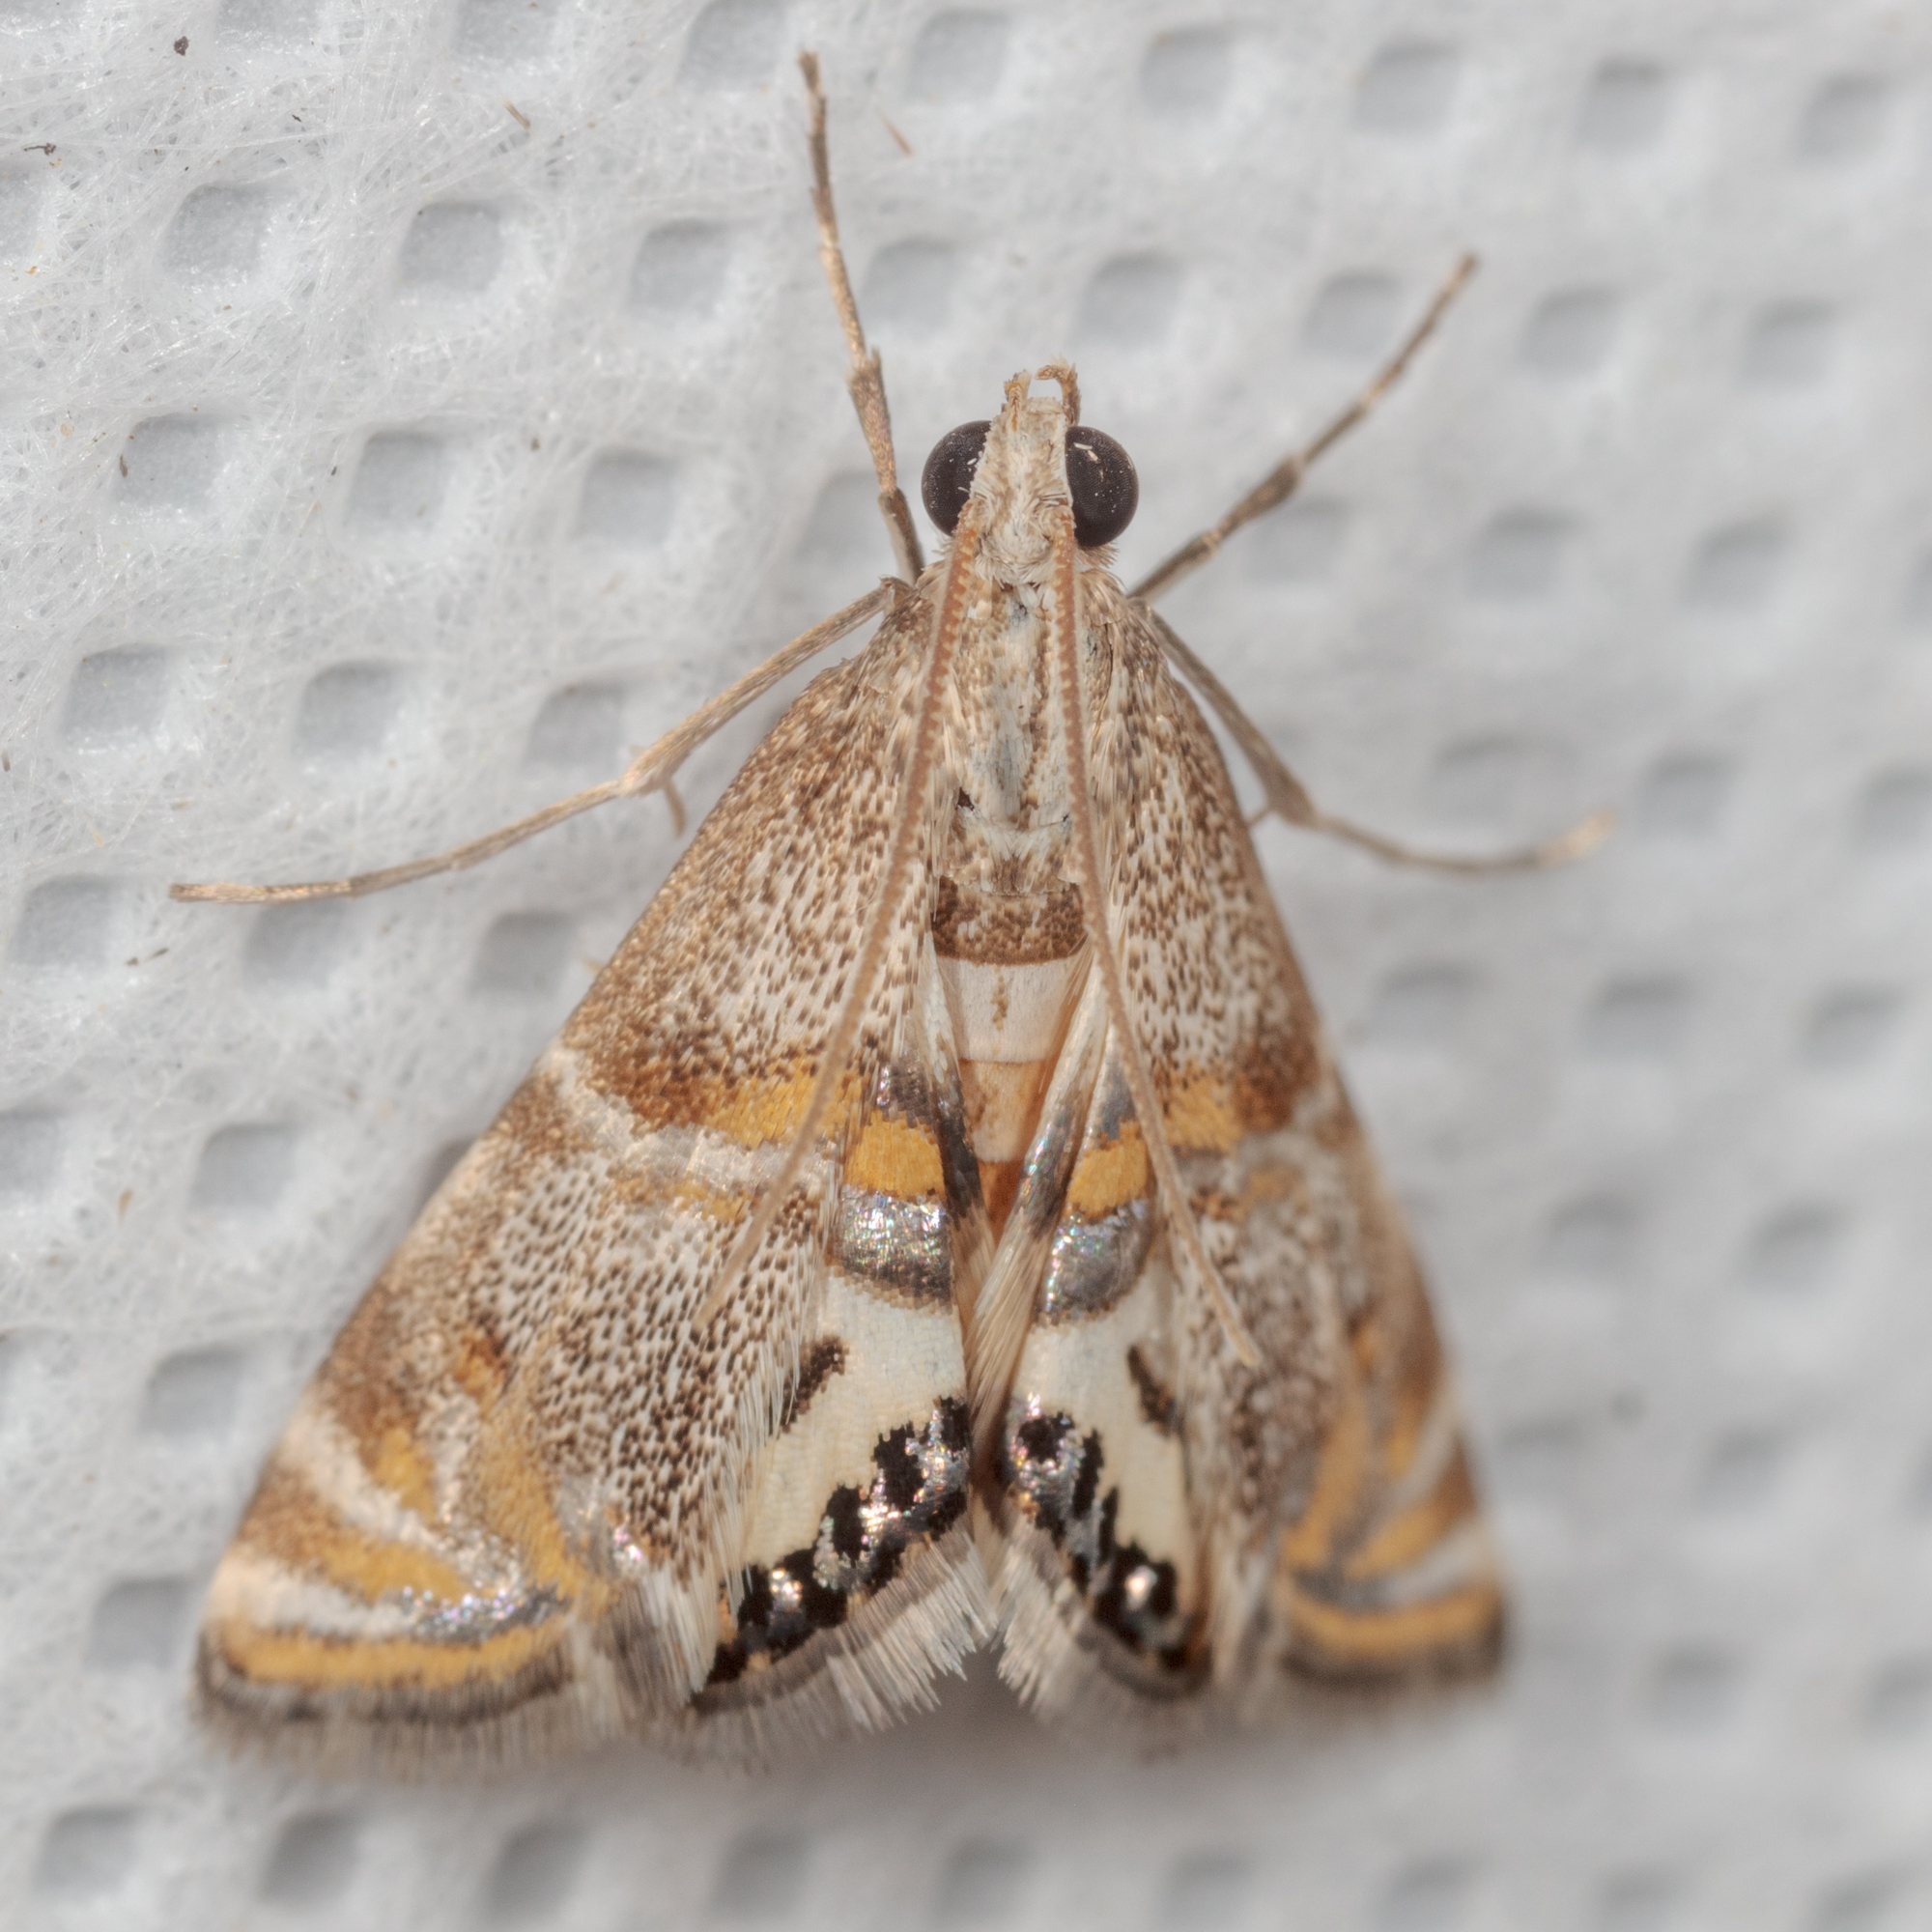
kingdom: Animalia
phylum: Arthropoda
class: Insecta
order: Lepidoptera
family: Crambidae
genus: Petrophila
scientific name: Petrophila bifascialis
